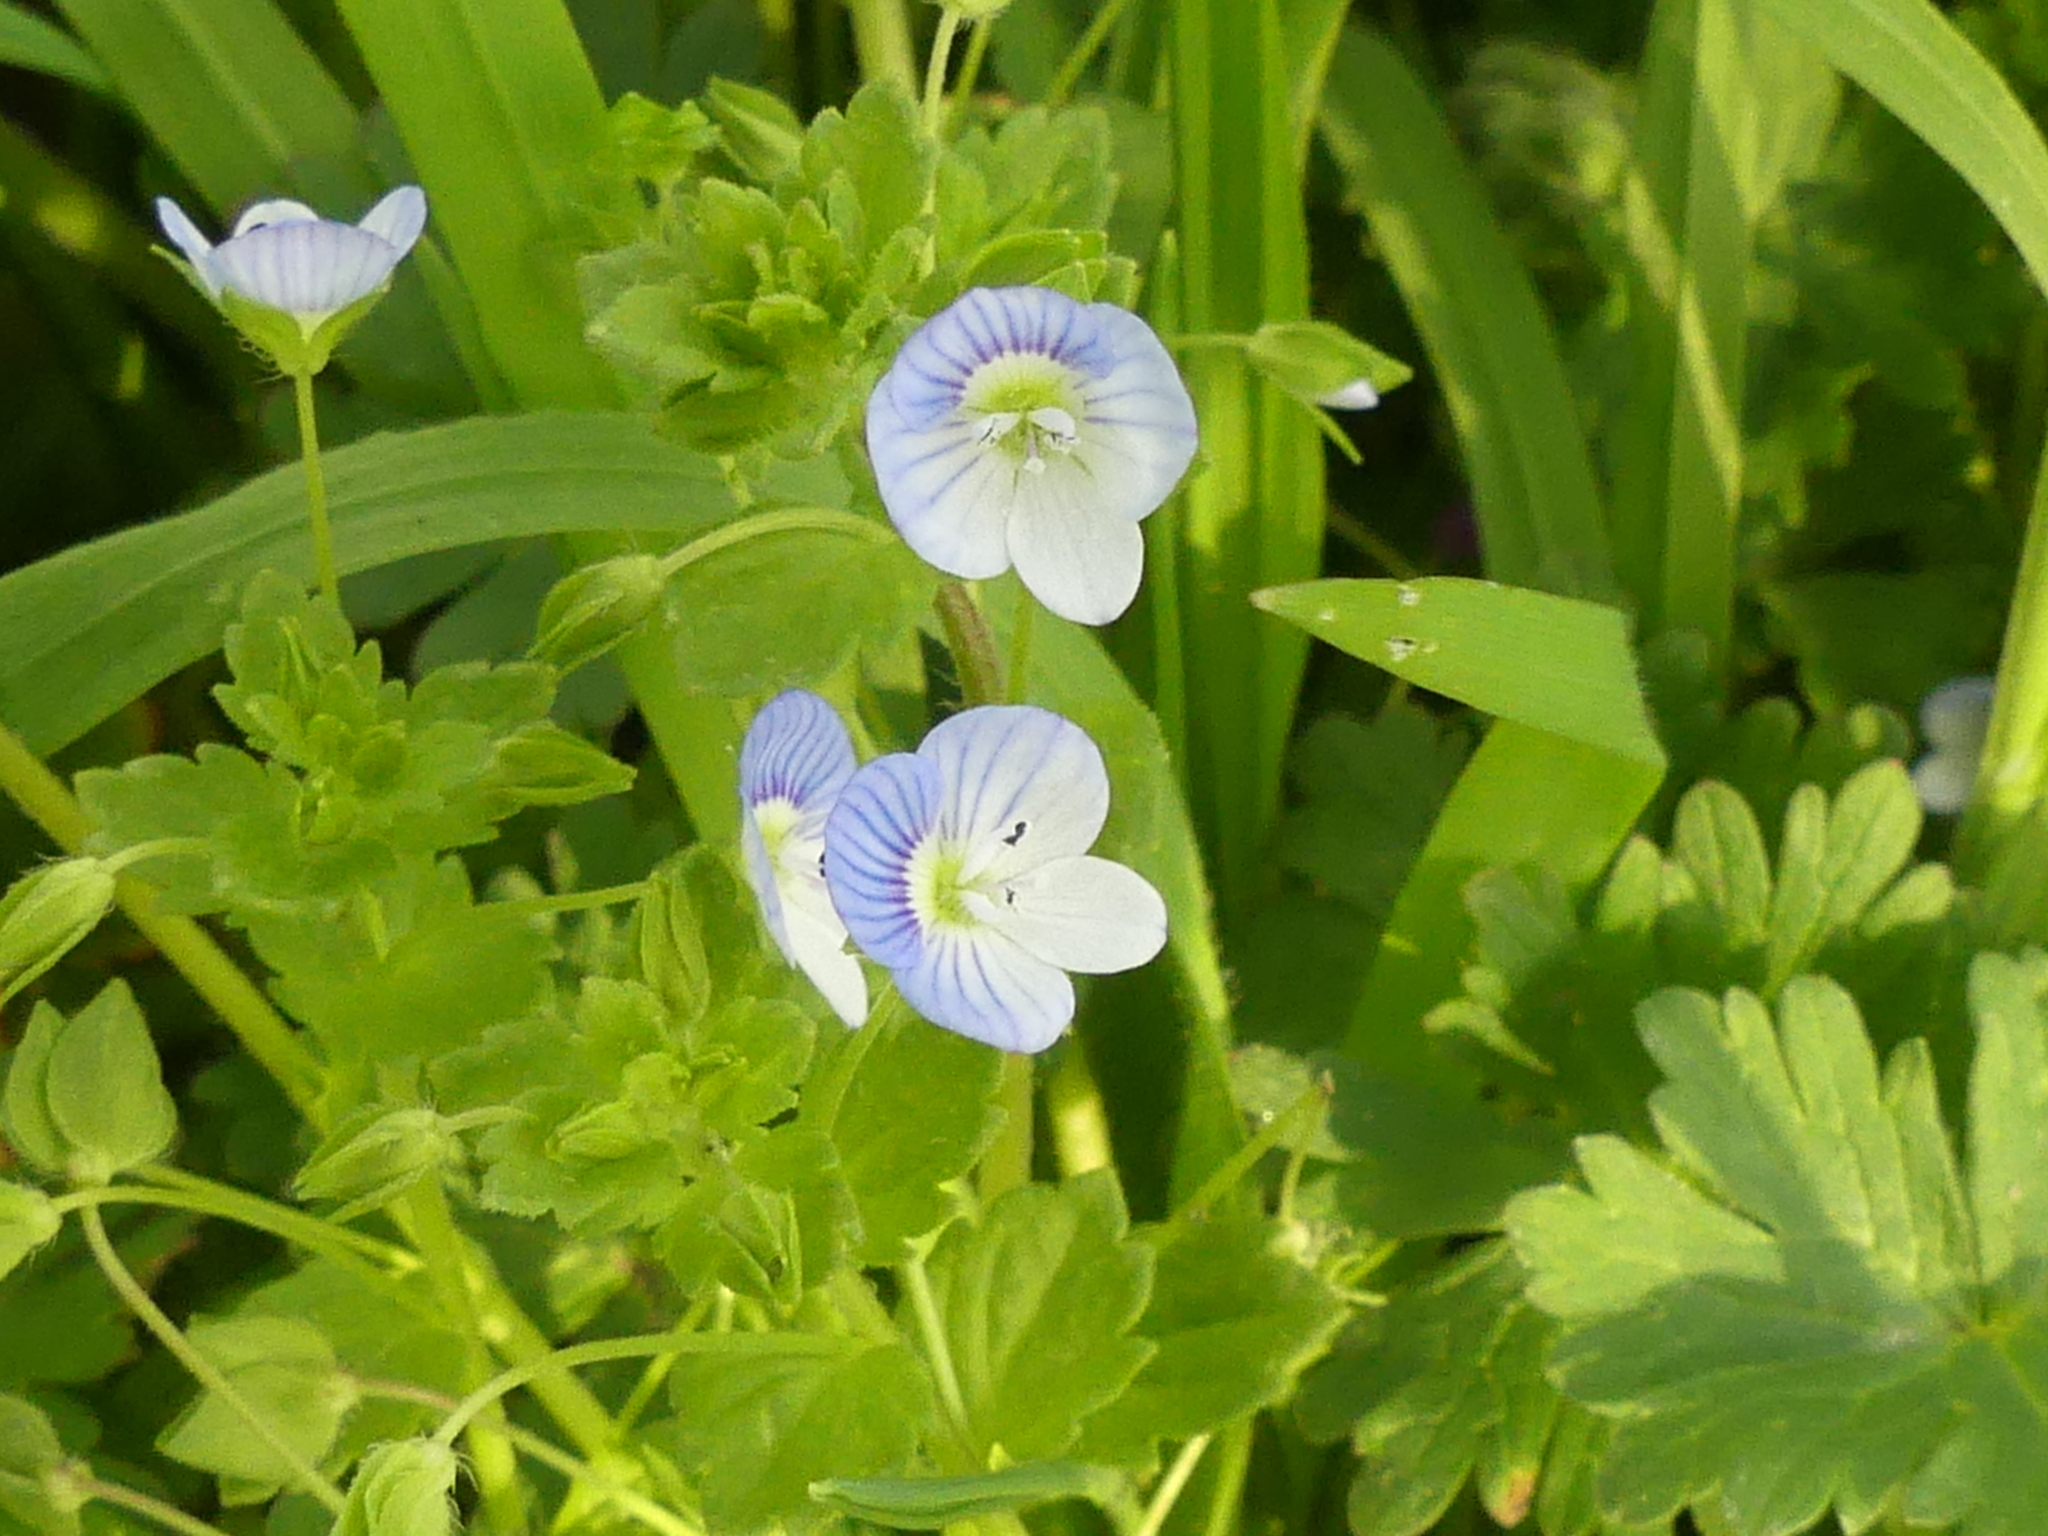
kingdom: Plantae
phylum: Tracheophyta
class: Magnoliopsida
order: Lamiales
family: Plantaginaceae
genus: Veronica
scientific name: Veronica persica
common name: Common field-speedwell
